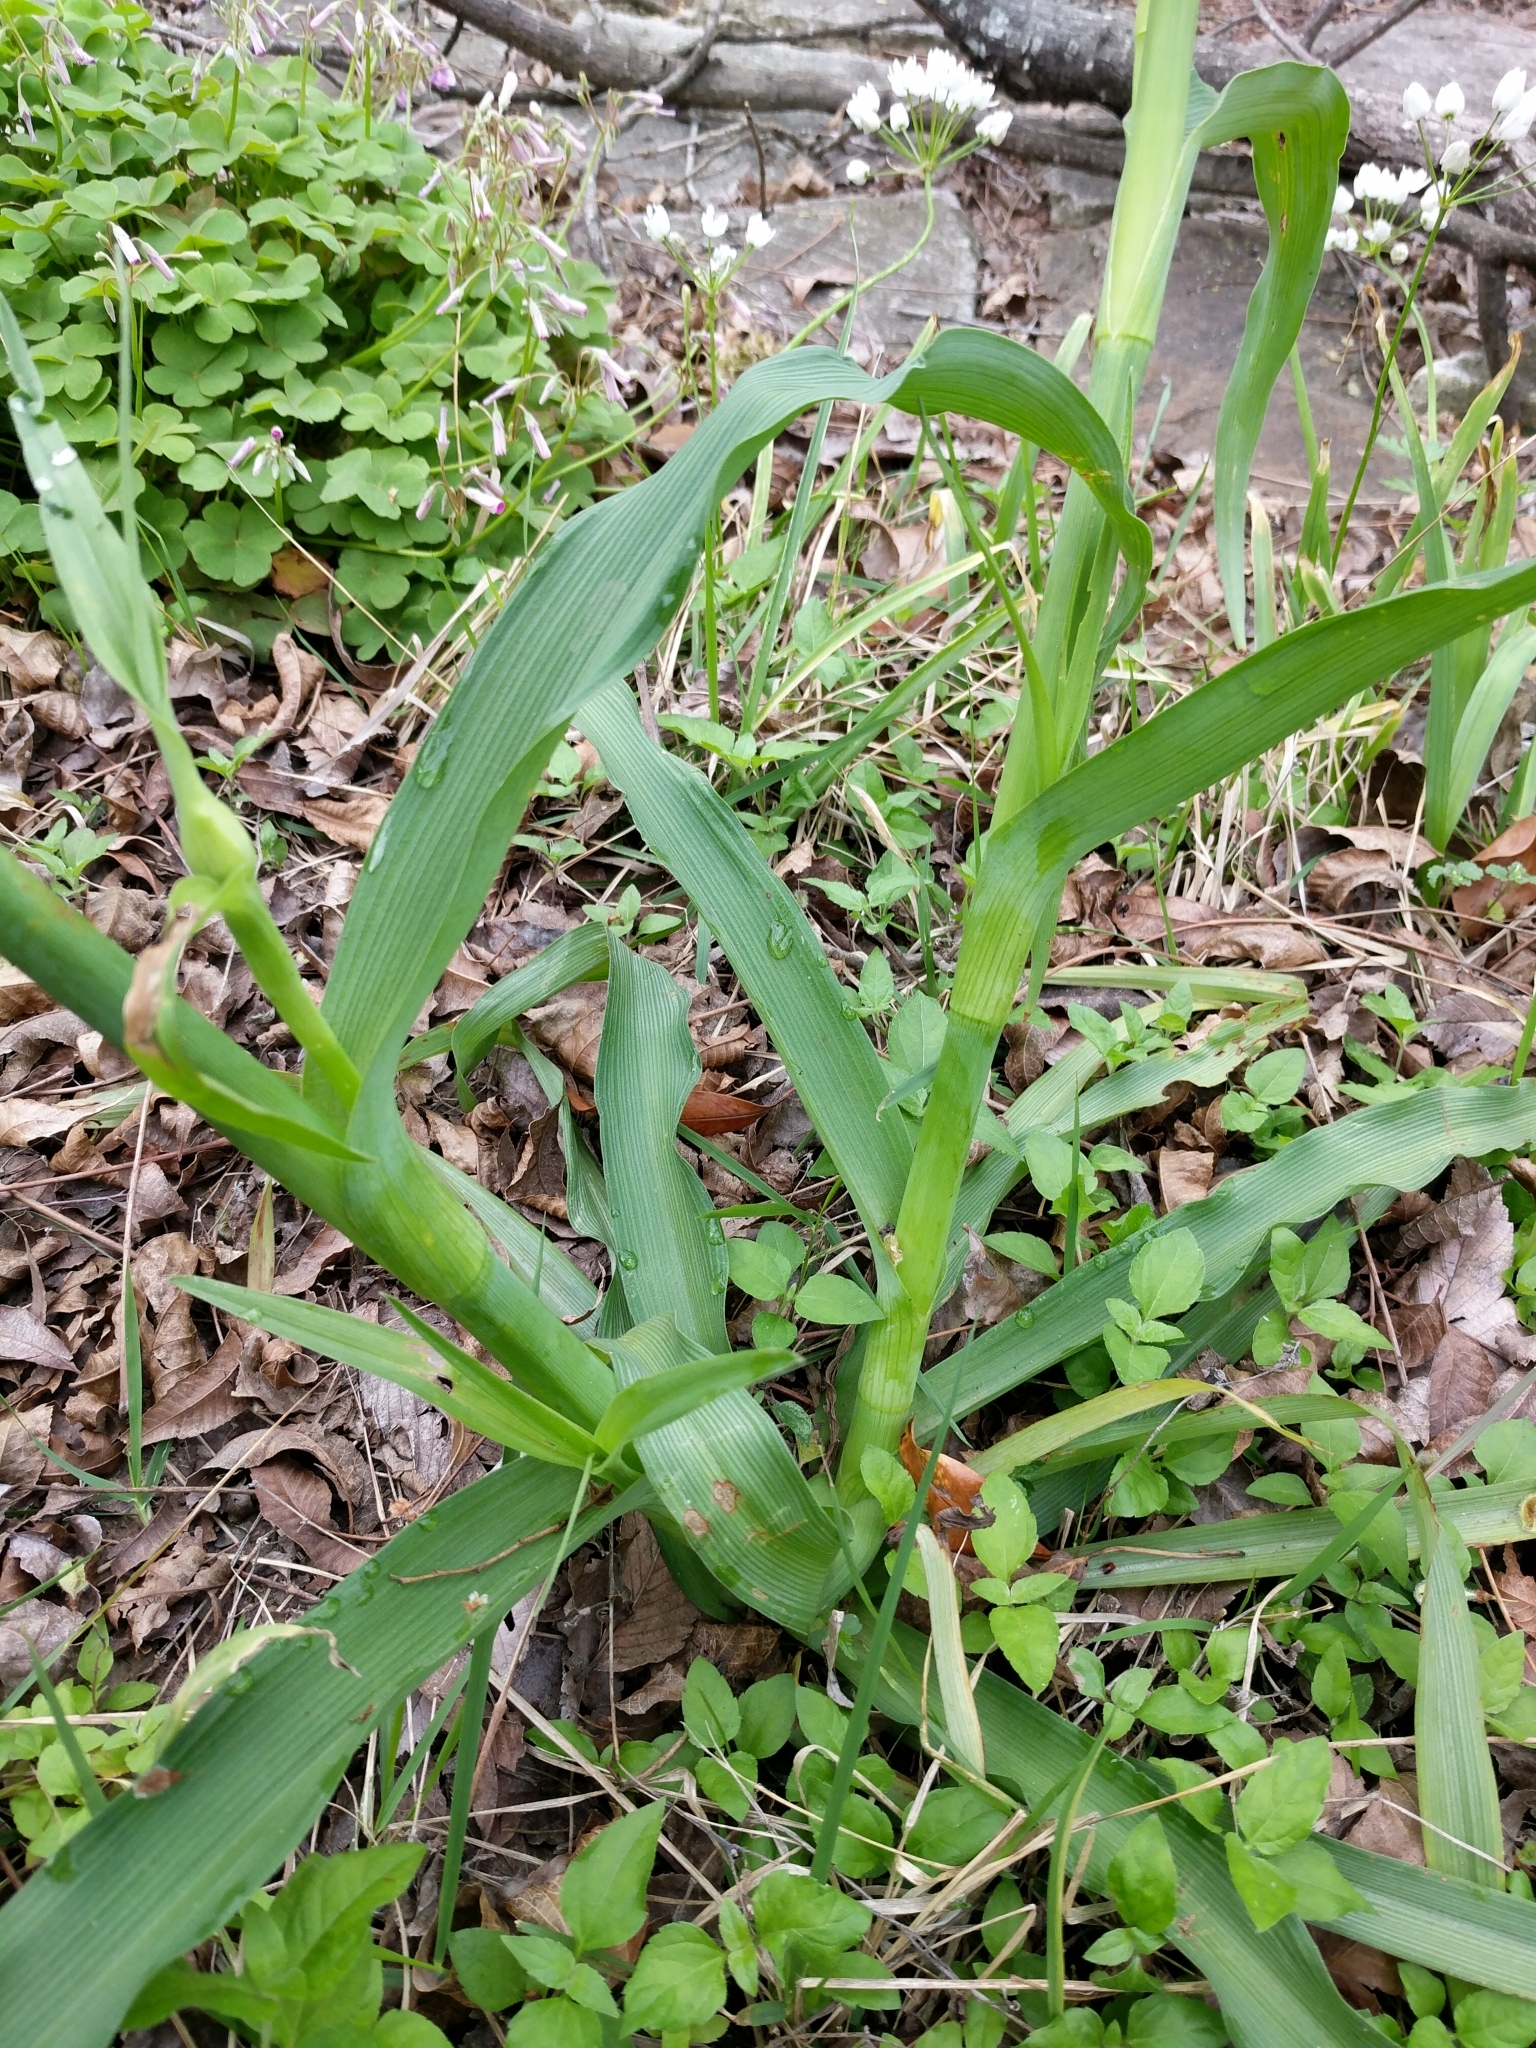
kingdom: Plantae
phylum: Tracheophyta
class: Liliopsida
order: Commelinales
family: Commelinaceae
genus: Tradescantia
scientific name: Tradescantia gigantea
